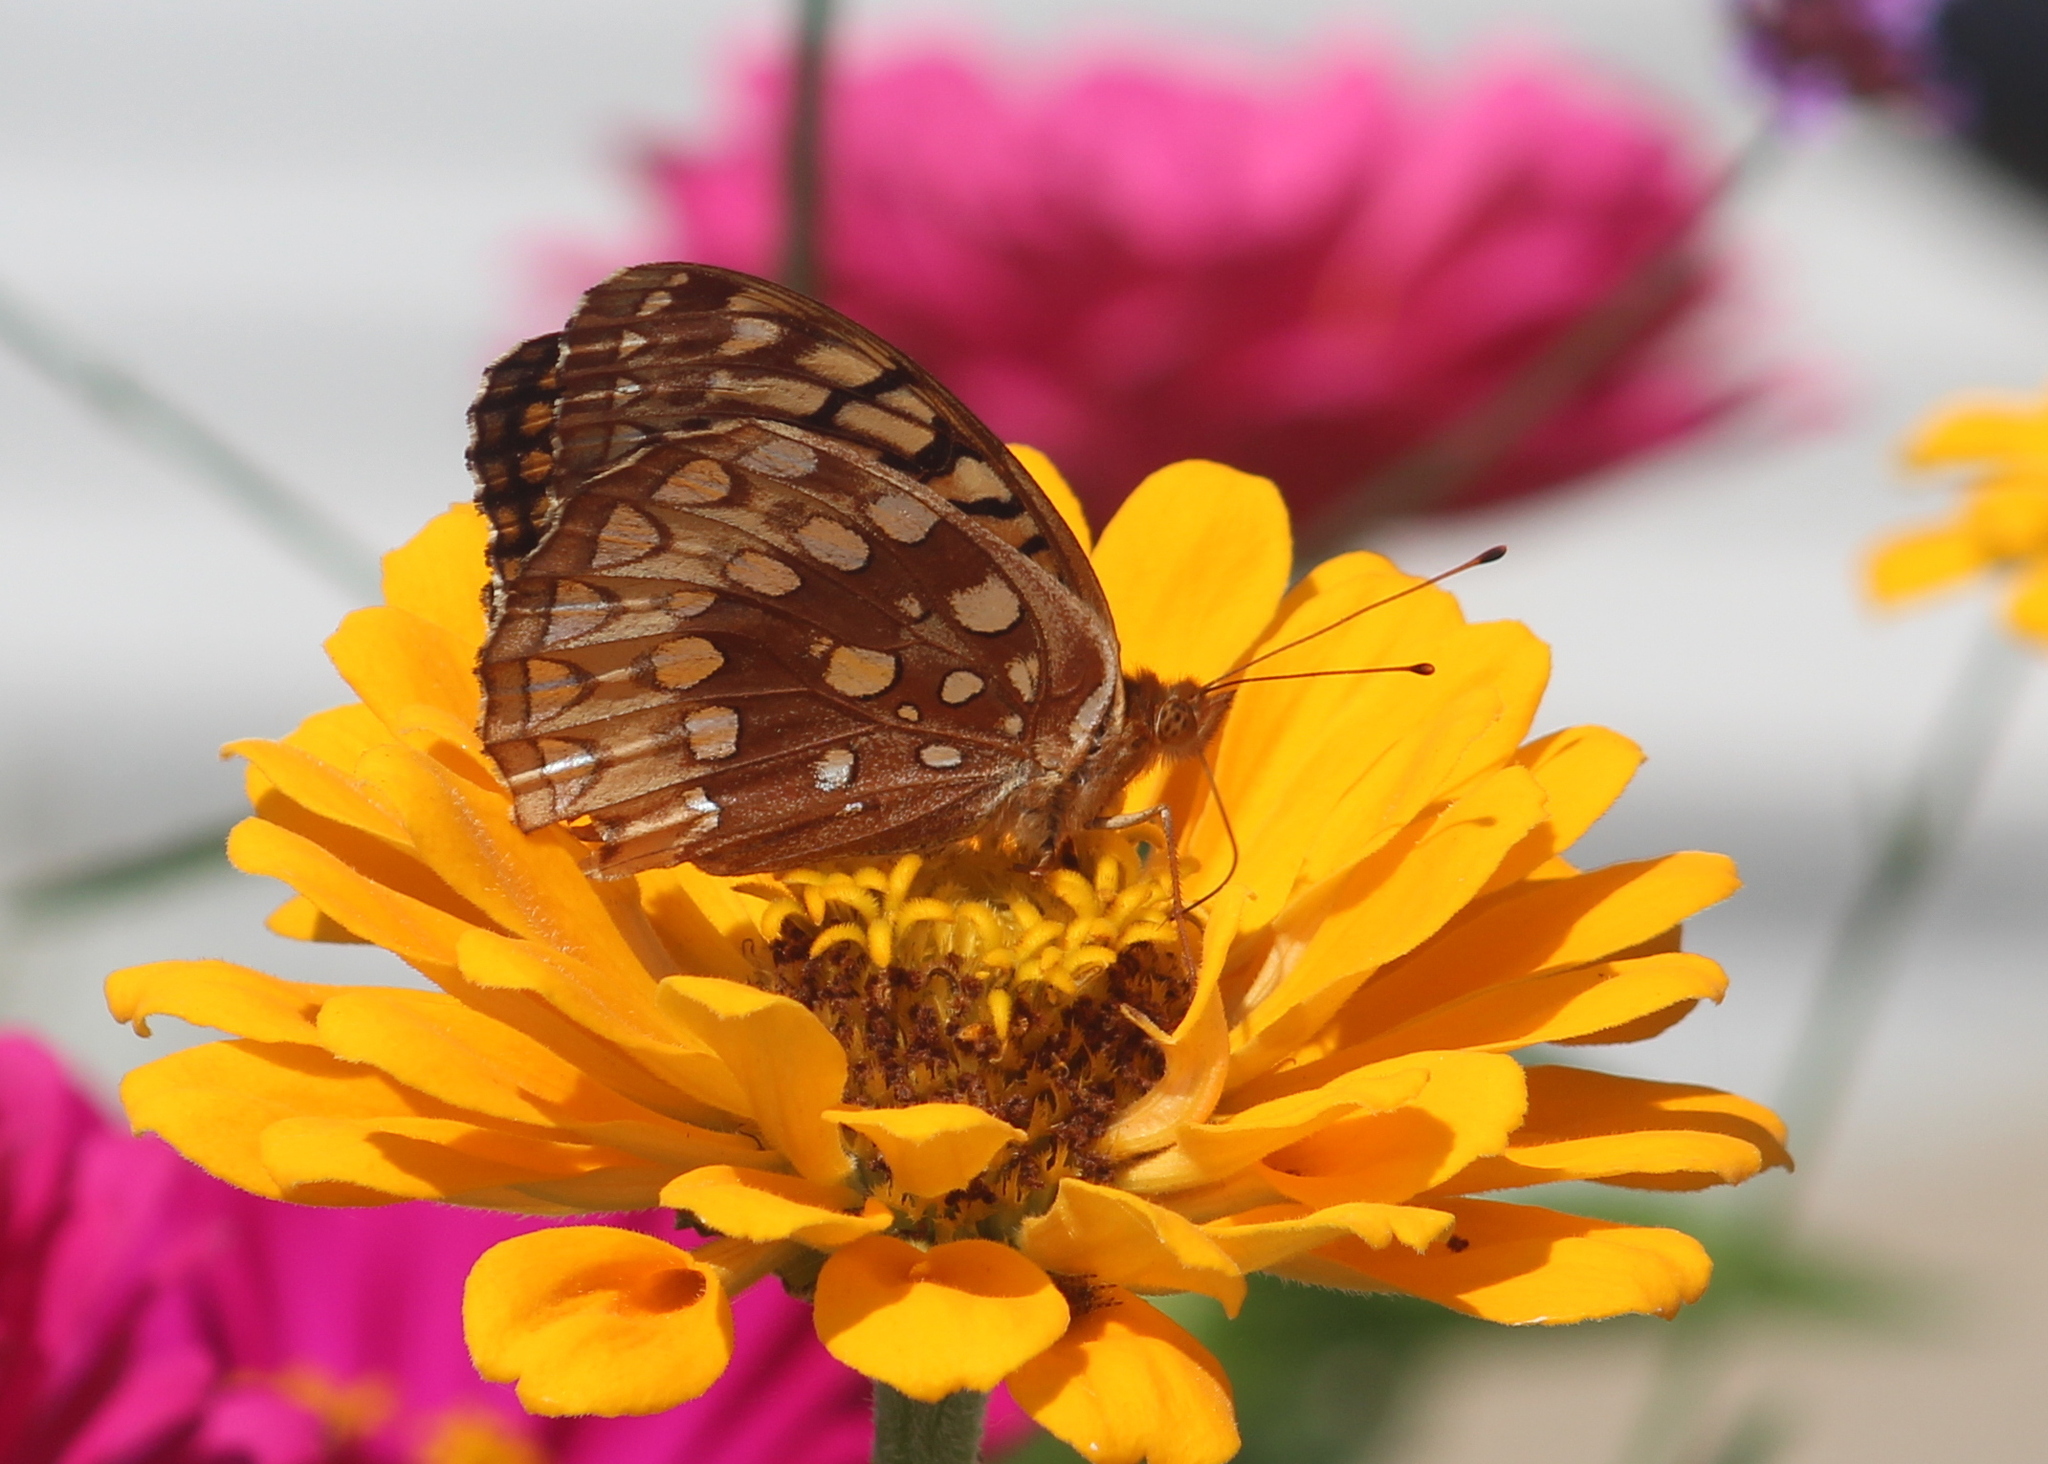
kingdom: Animalia
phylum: Arthropoda
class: Insecta
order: Lepidoptera
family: Nymphalidae
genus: Speyeria
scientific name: Speyeria cybele
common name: Great spangled fritillary
